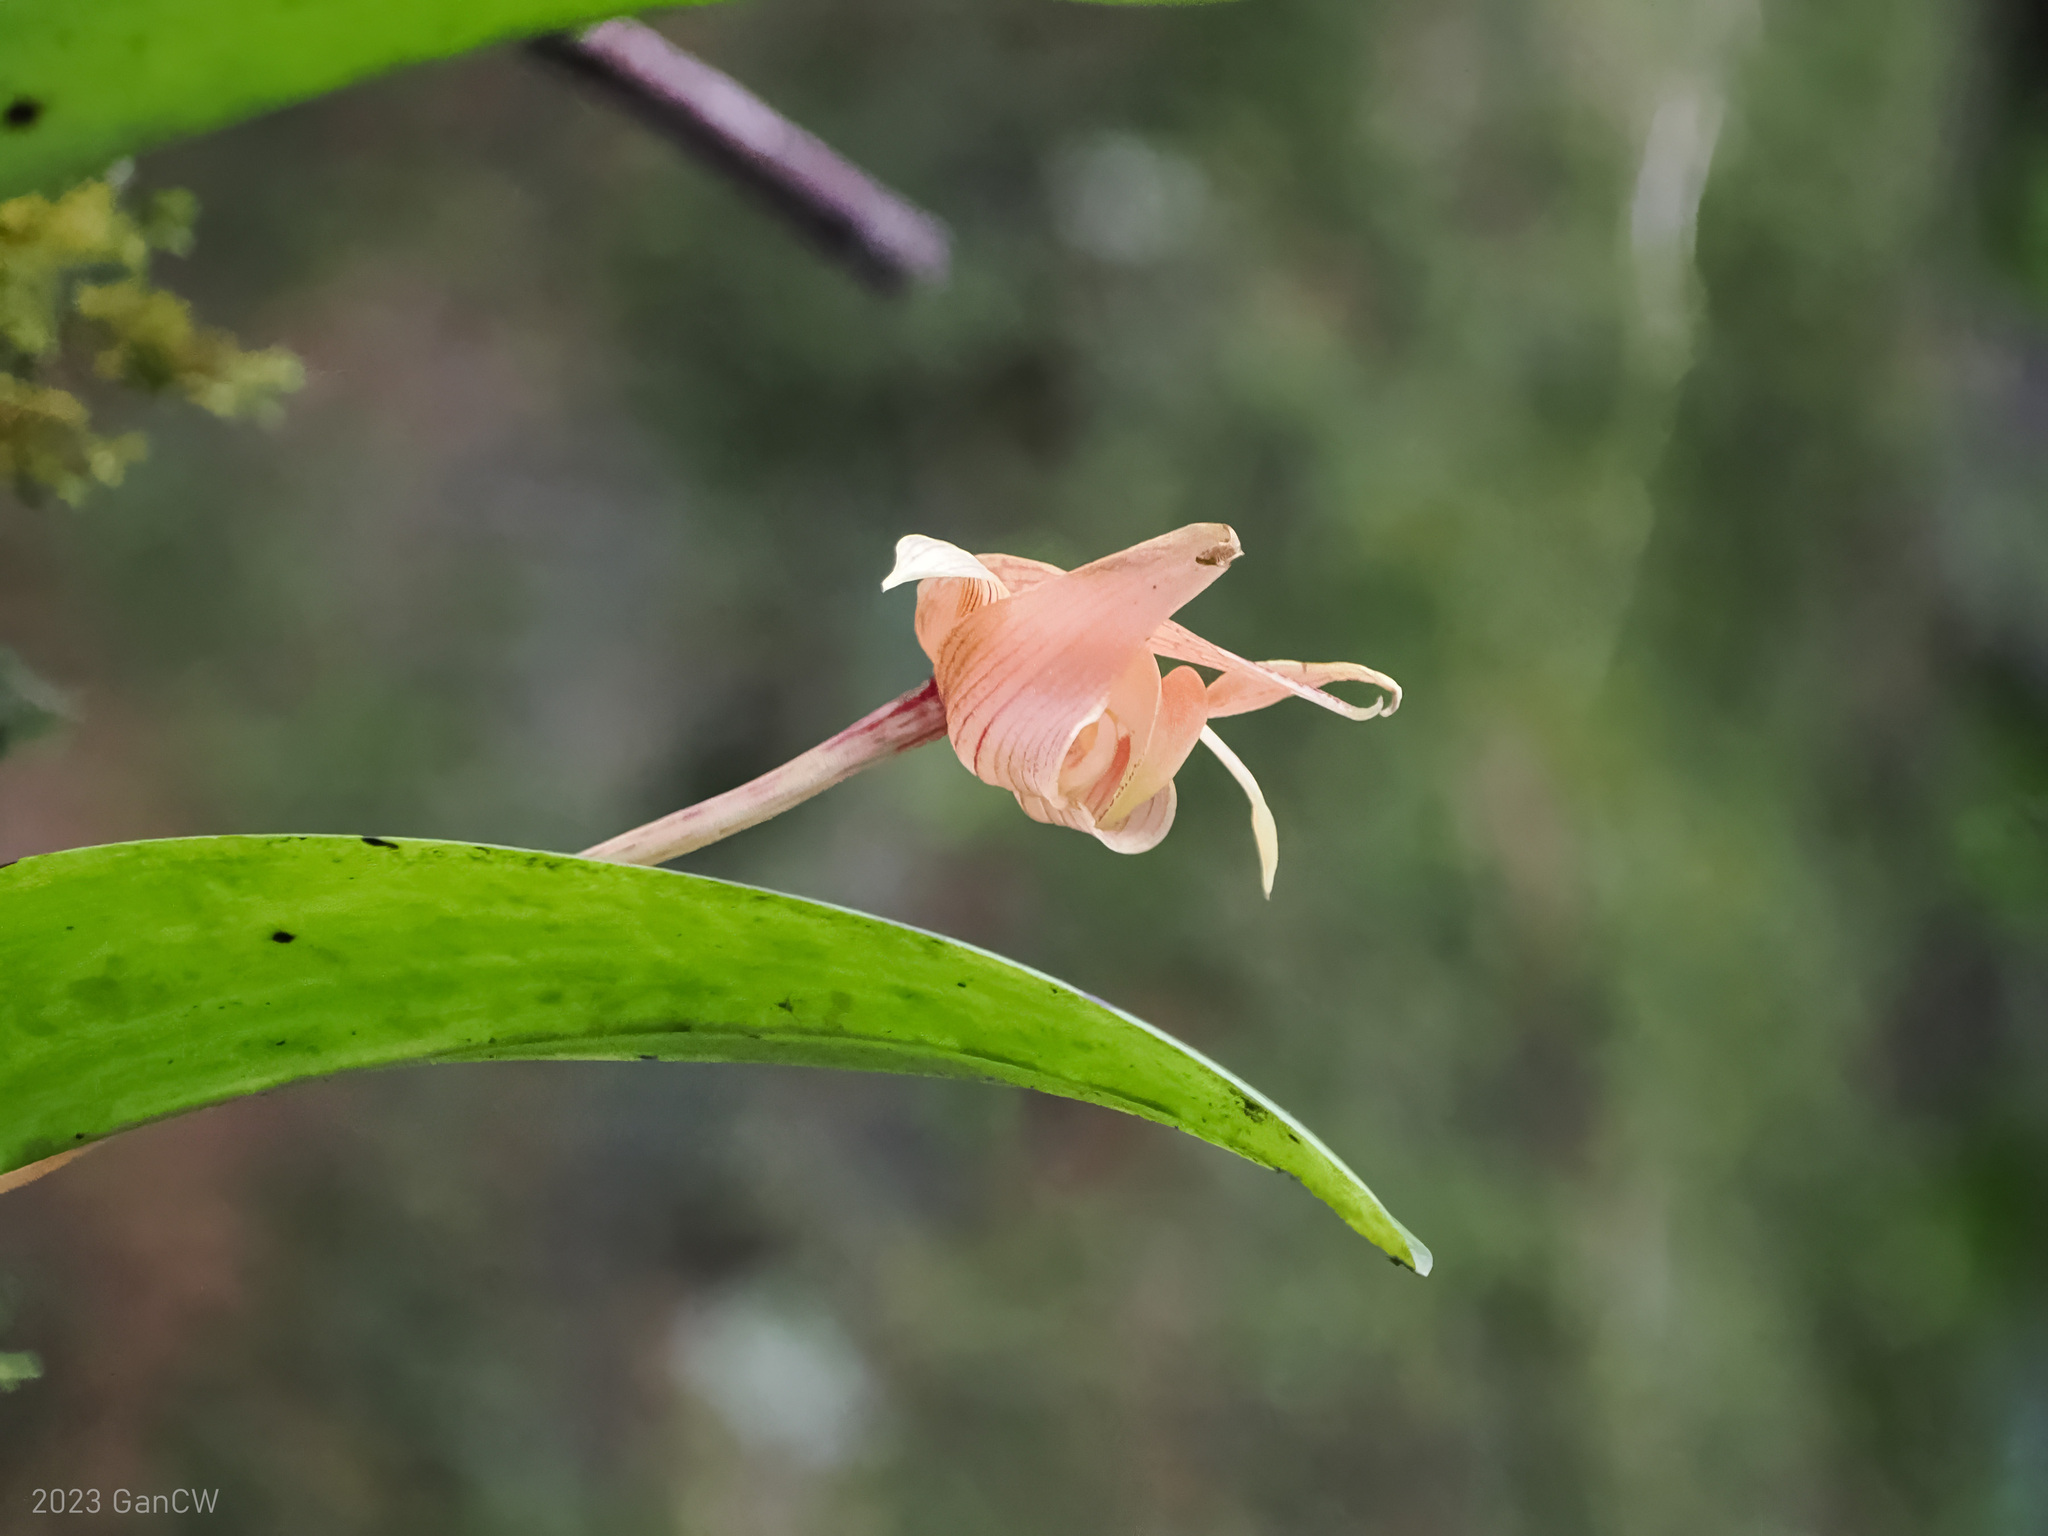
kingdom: Plantae
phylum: Tracheophyta
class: Liliopsida
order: Asparagales
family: Orchidaceae
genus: Bulbophyllum
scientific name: Bulbophyllum lobbii
